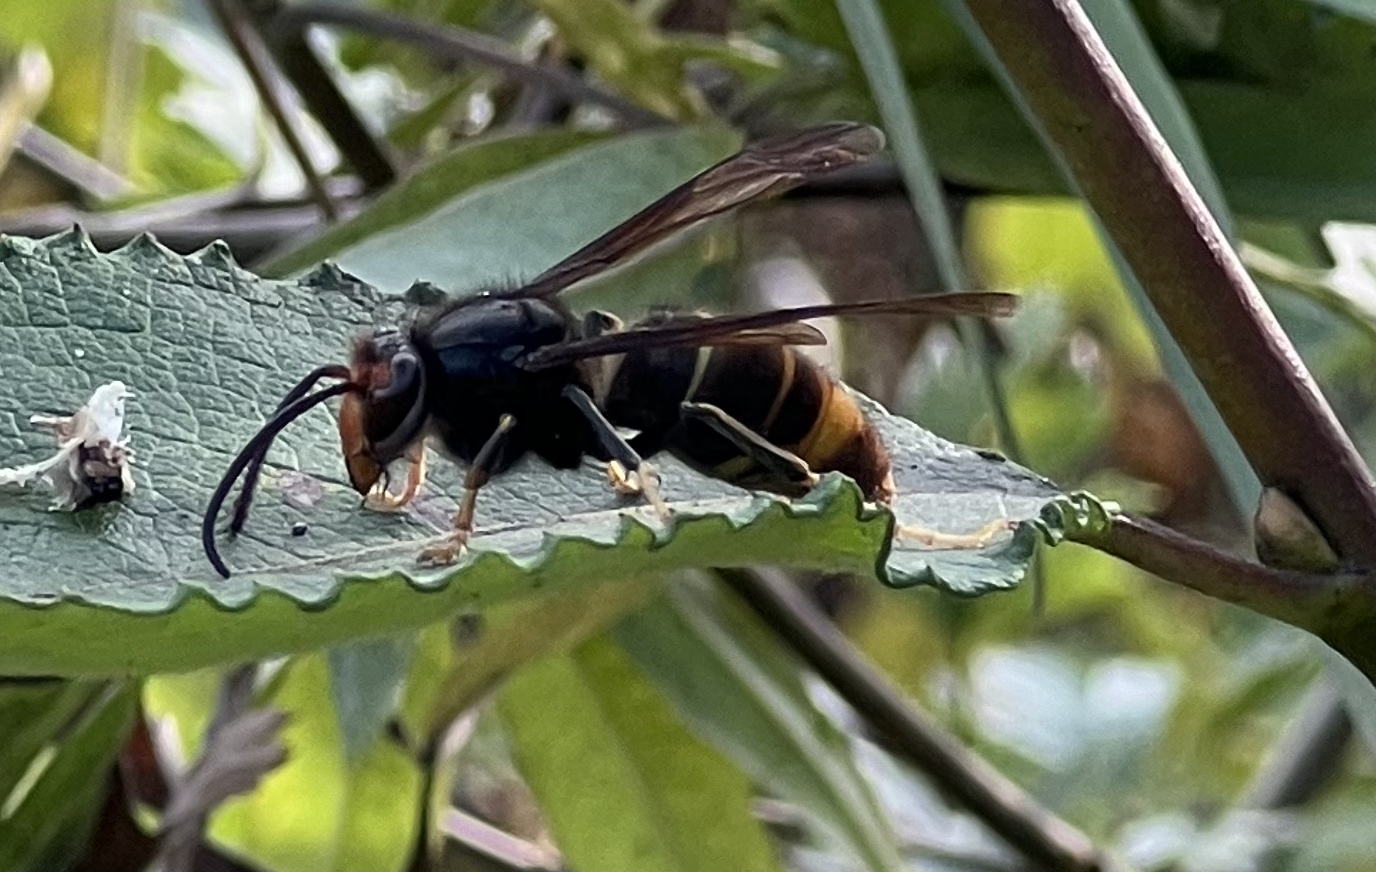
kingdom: Animalia
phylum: Arthropoda
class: Insecta
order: Hymenoptera
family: Vespidae
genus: Vespa
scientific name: Vespa velutina
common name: Asian hornet
